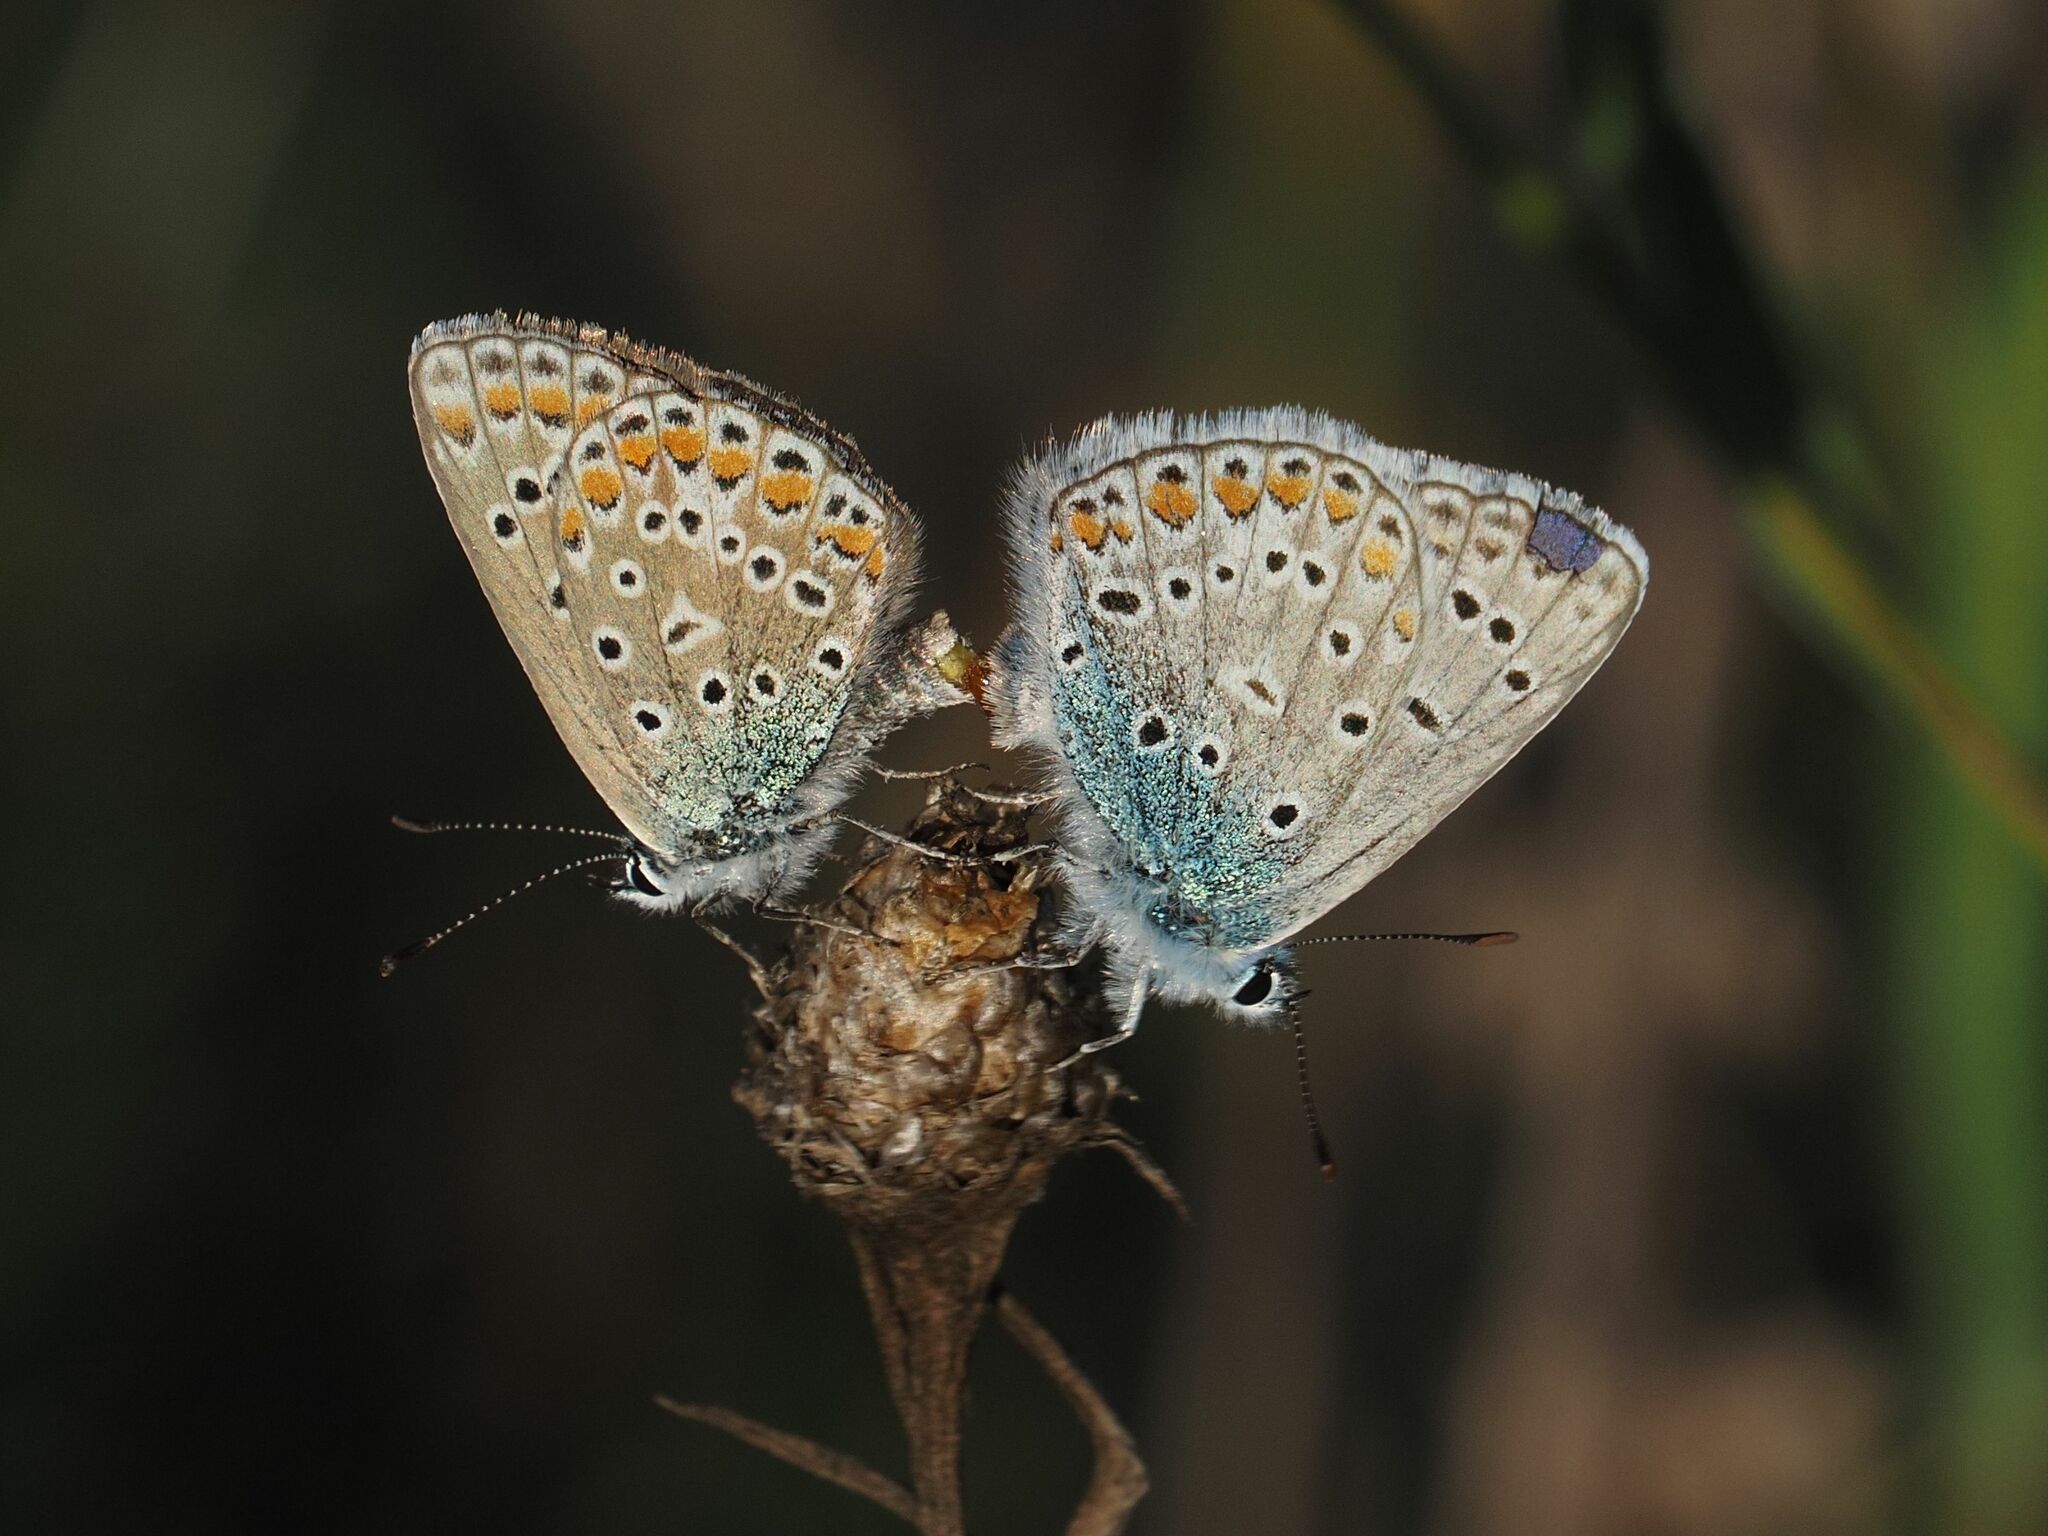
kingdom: Animalia
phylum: Arthropoda
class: Insecta
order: Lepidoptera
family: Lycaenidae
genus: Polyommatus
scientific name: Polyommatus icarus
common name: Common blue
